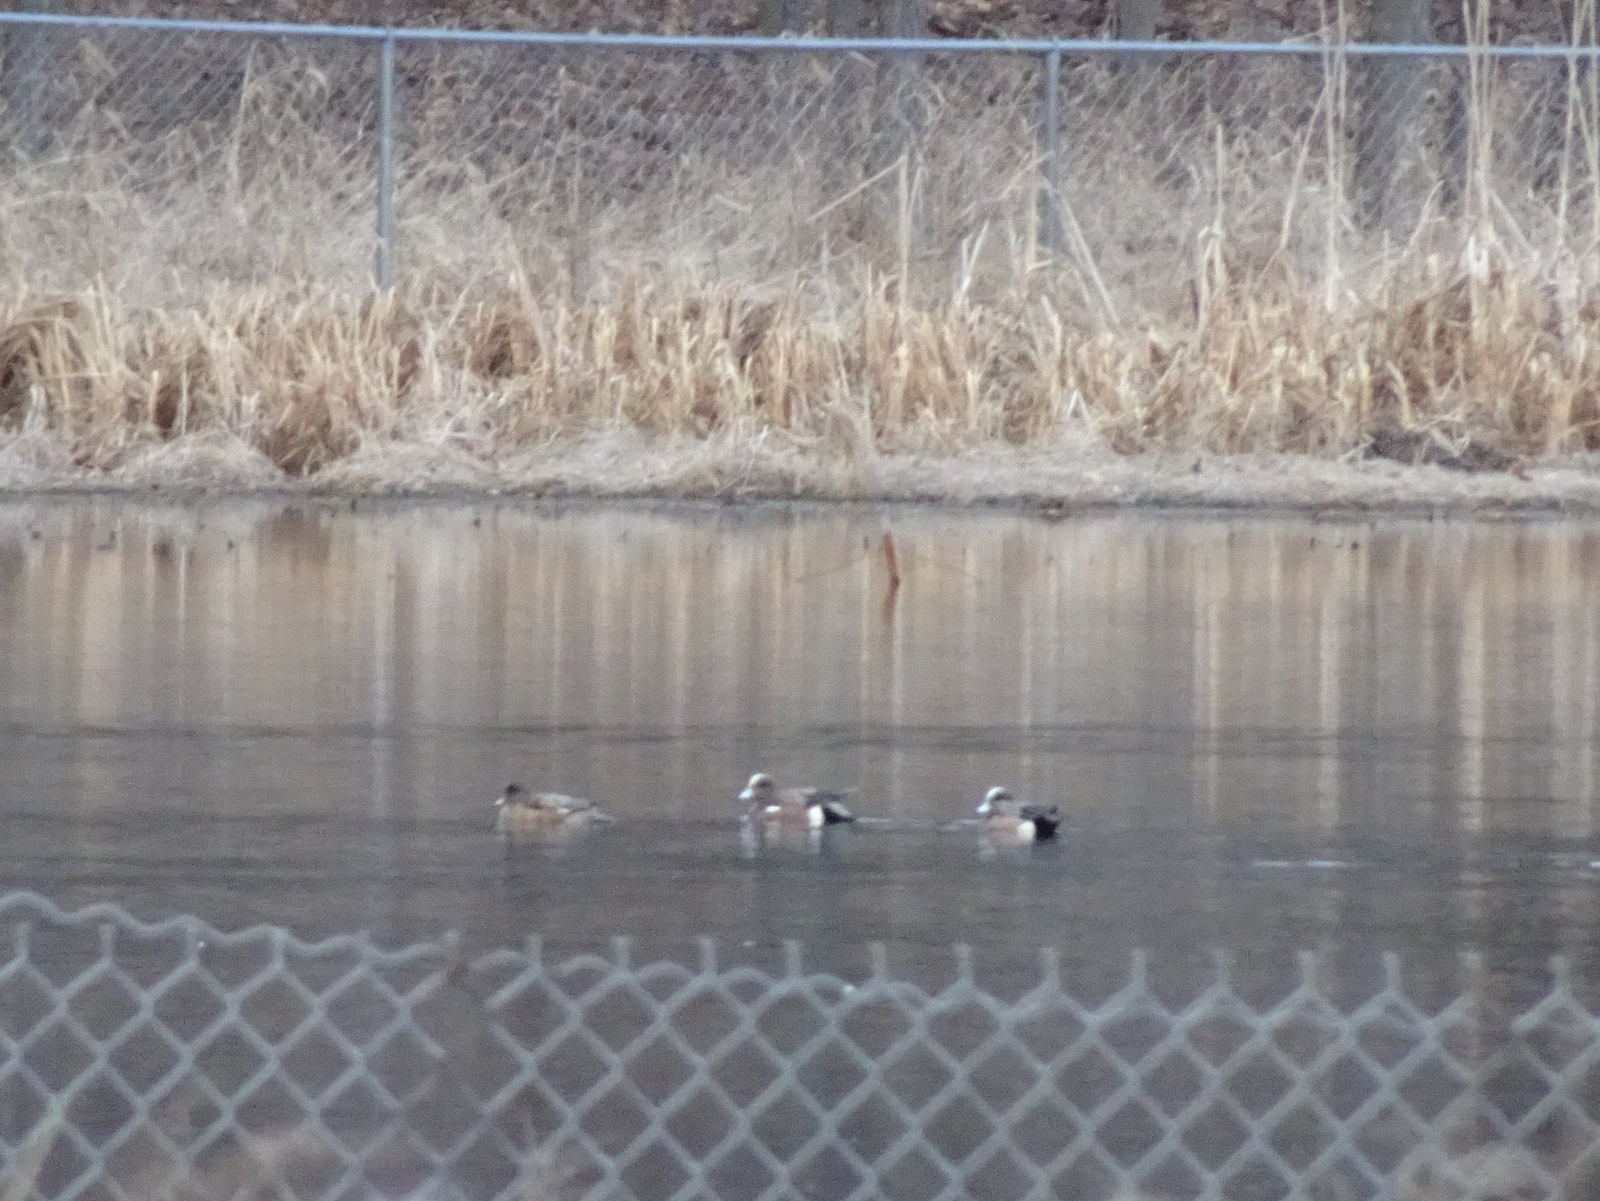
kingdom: Animalia
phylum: Chordata
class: Aves
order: Anseriformes
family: Anatidae
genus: Mareca
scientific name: Mareca americana
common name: American wigeon
